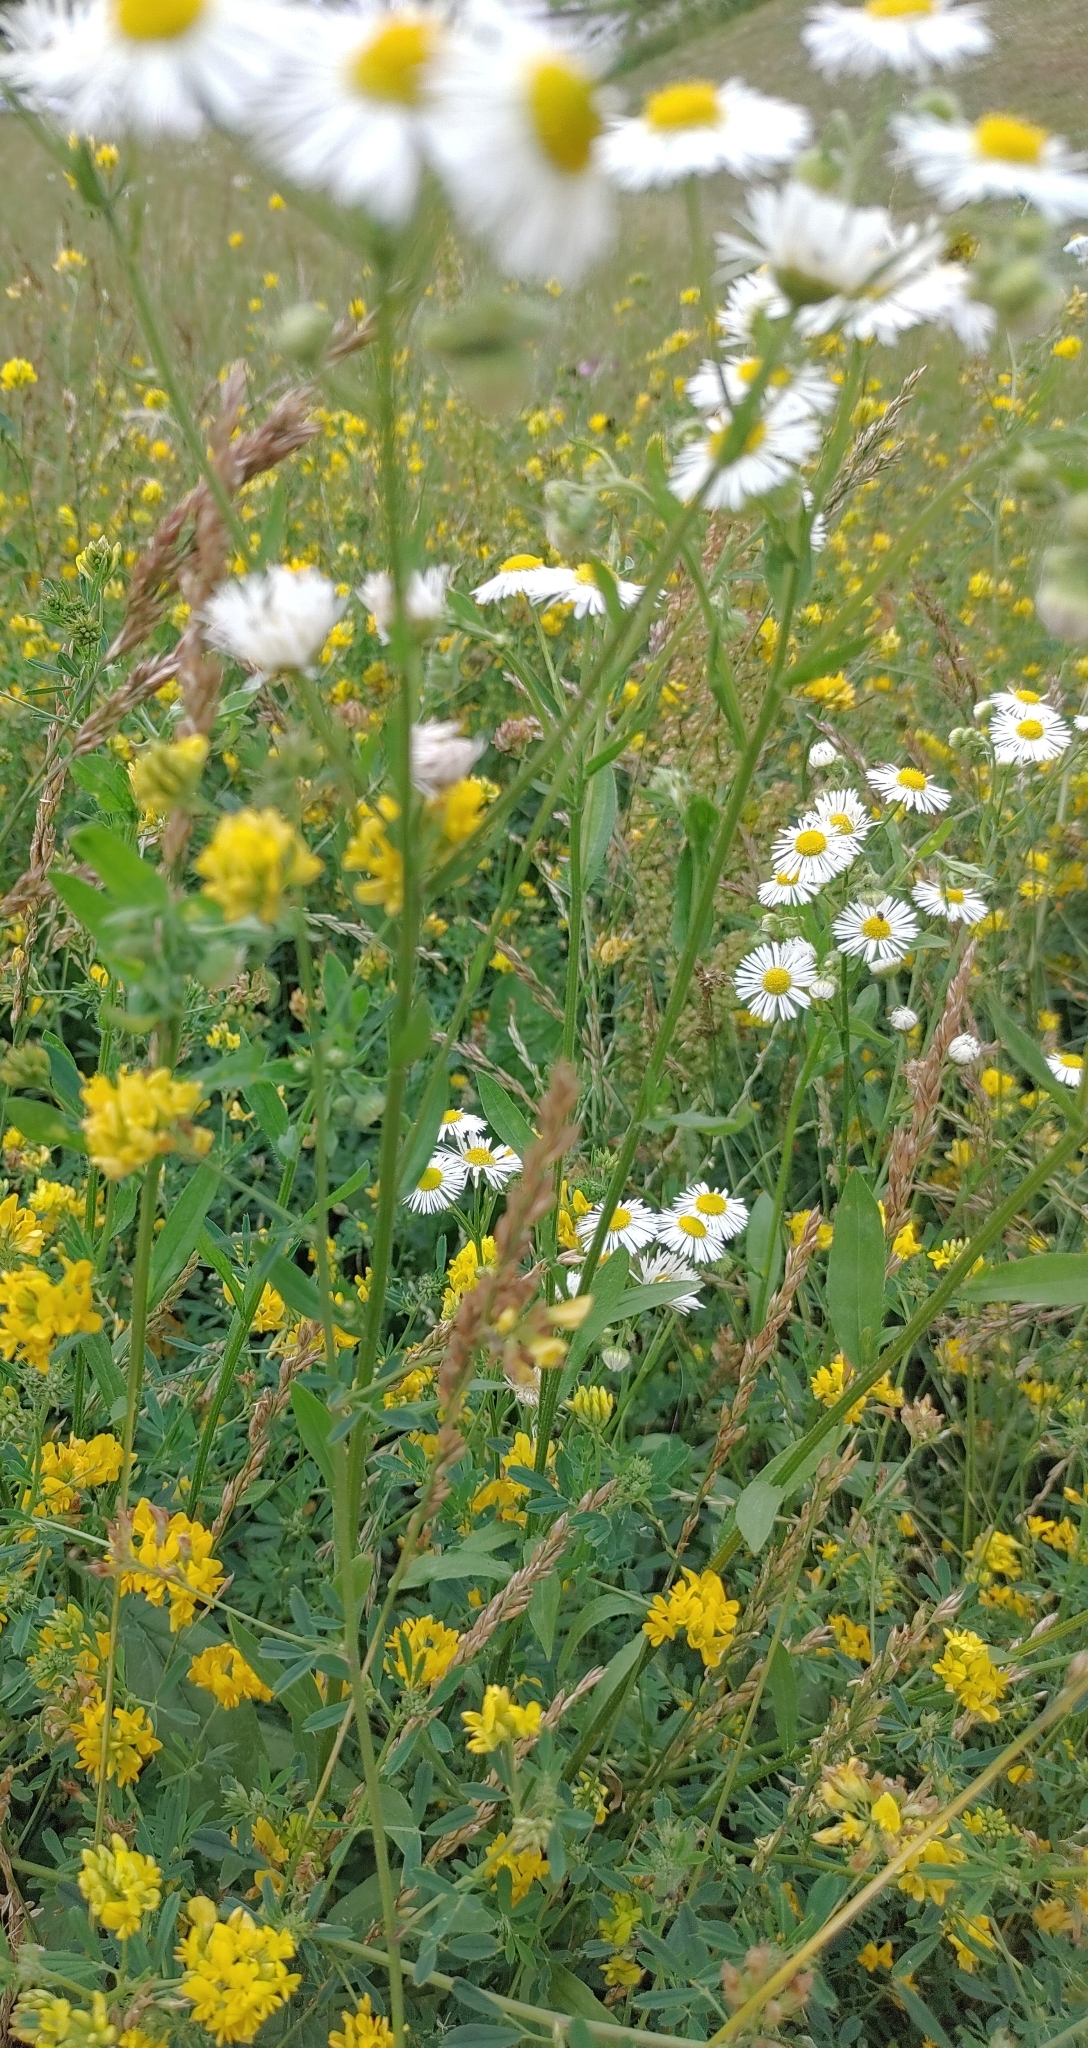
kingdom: Plantae
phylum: Tracheophyta
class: Magnoliopsida
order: Asterales
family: Asteraceae
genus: Erigeron
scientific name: Erigeron annuus
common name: Tall fleabane
